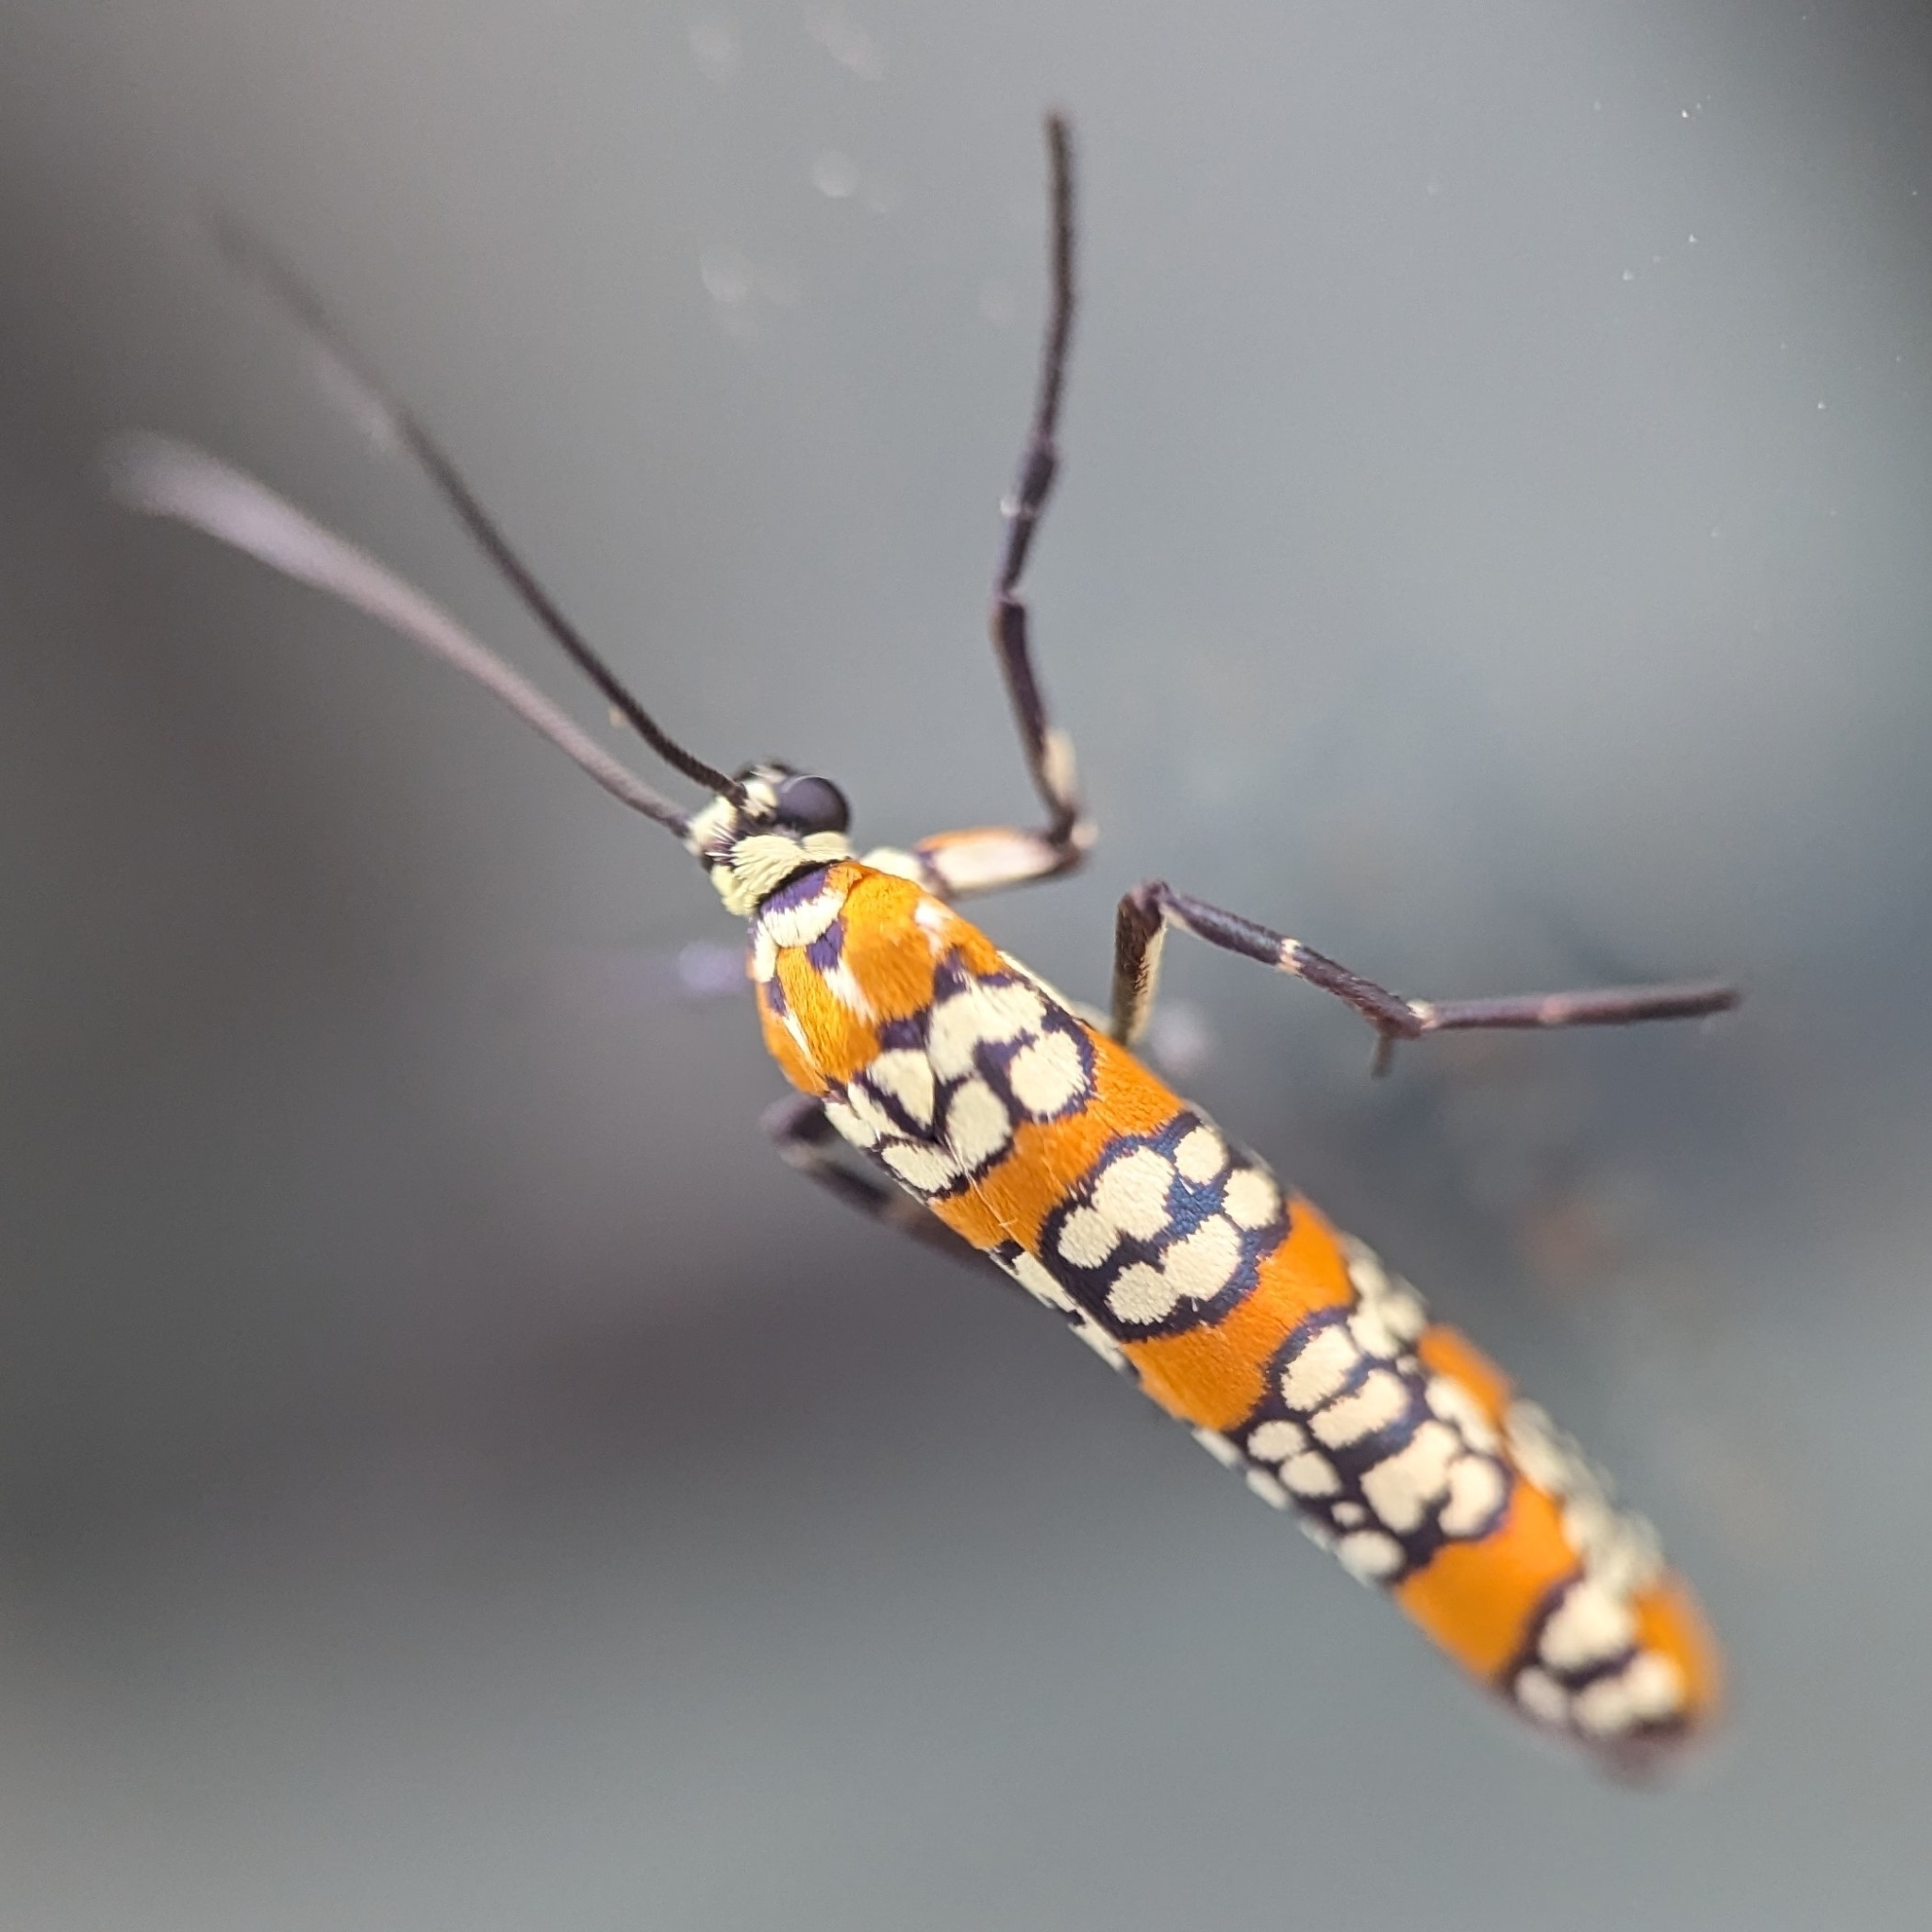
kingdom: Animalia
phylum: Arthropoda
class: Insecta
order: Lepidoptera
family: Attevidae
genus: Atteva
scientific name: Atteva punctella
